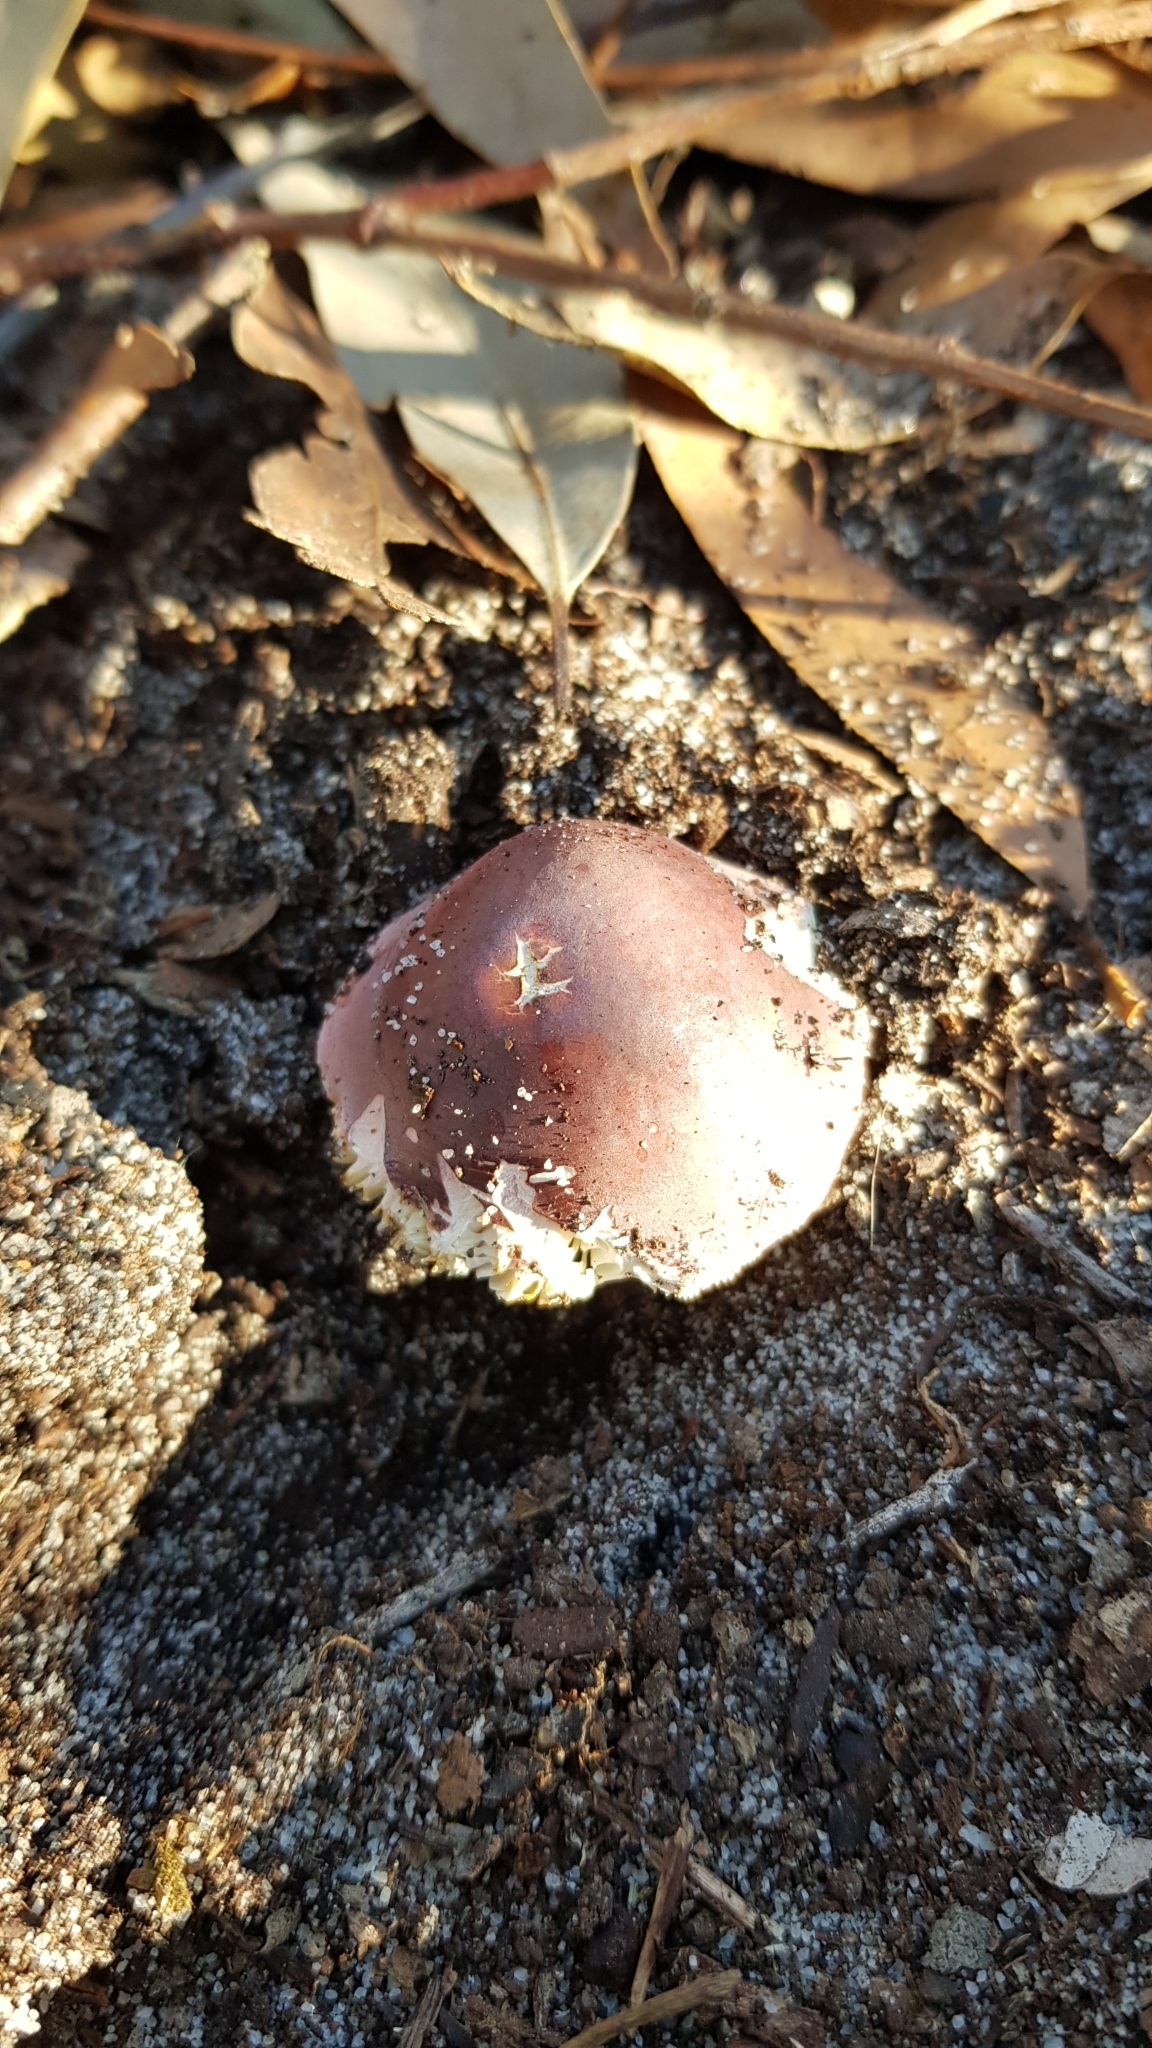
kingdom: Fungi
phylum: Basidiomycota
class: Agaricomycetes
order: Russulales
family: Russulaceae
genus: Russula
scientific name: Russula lenkunya
